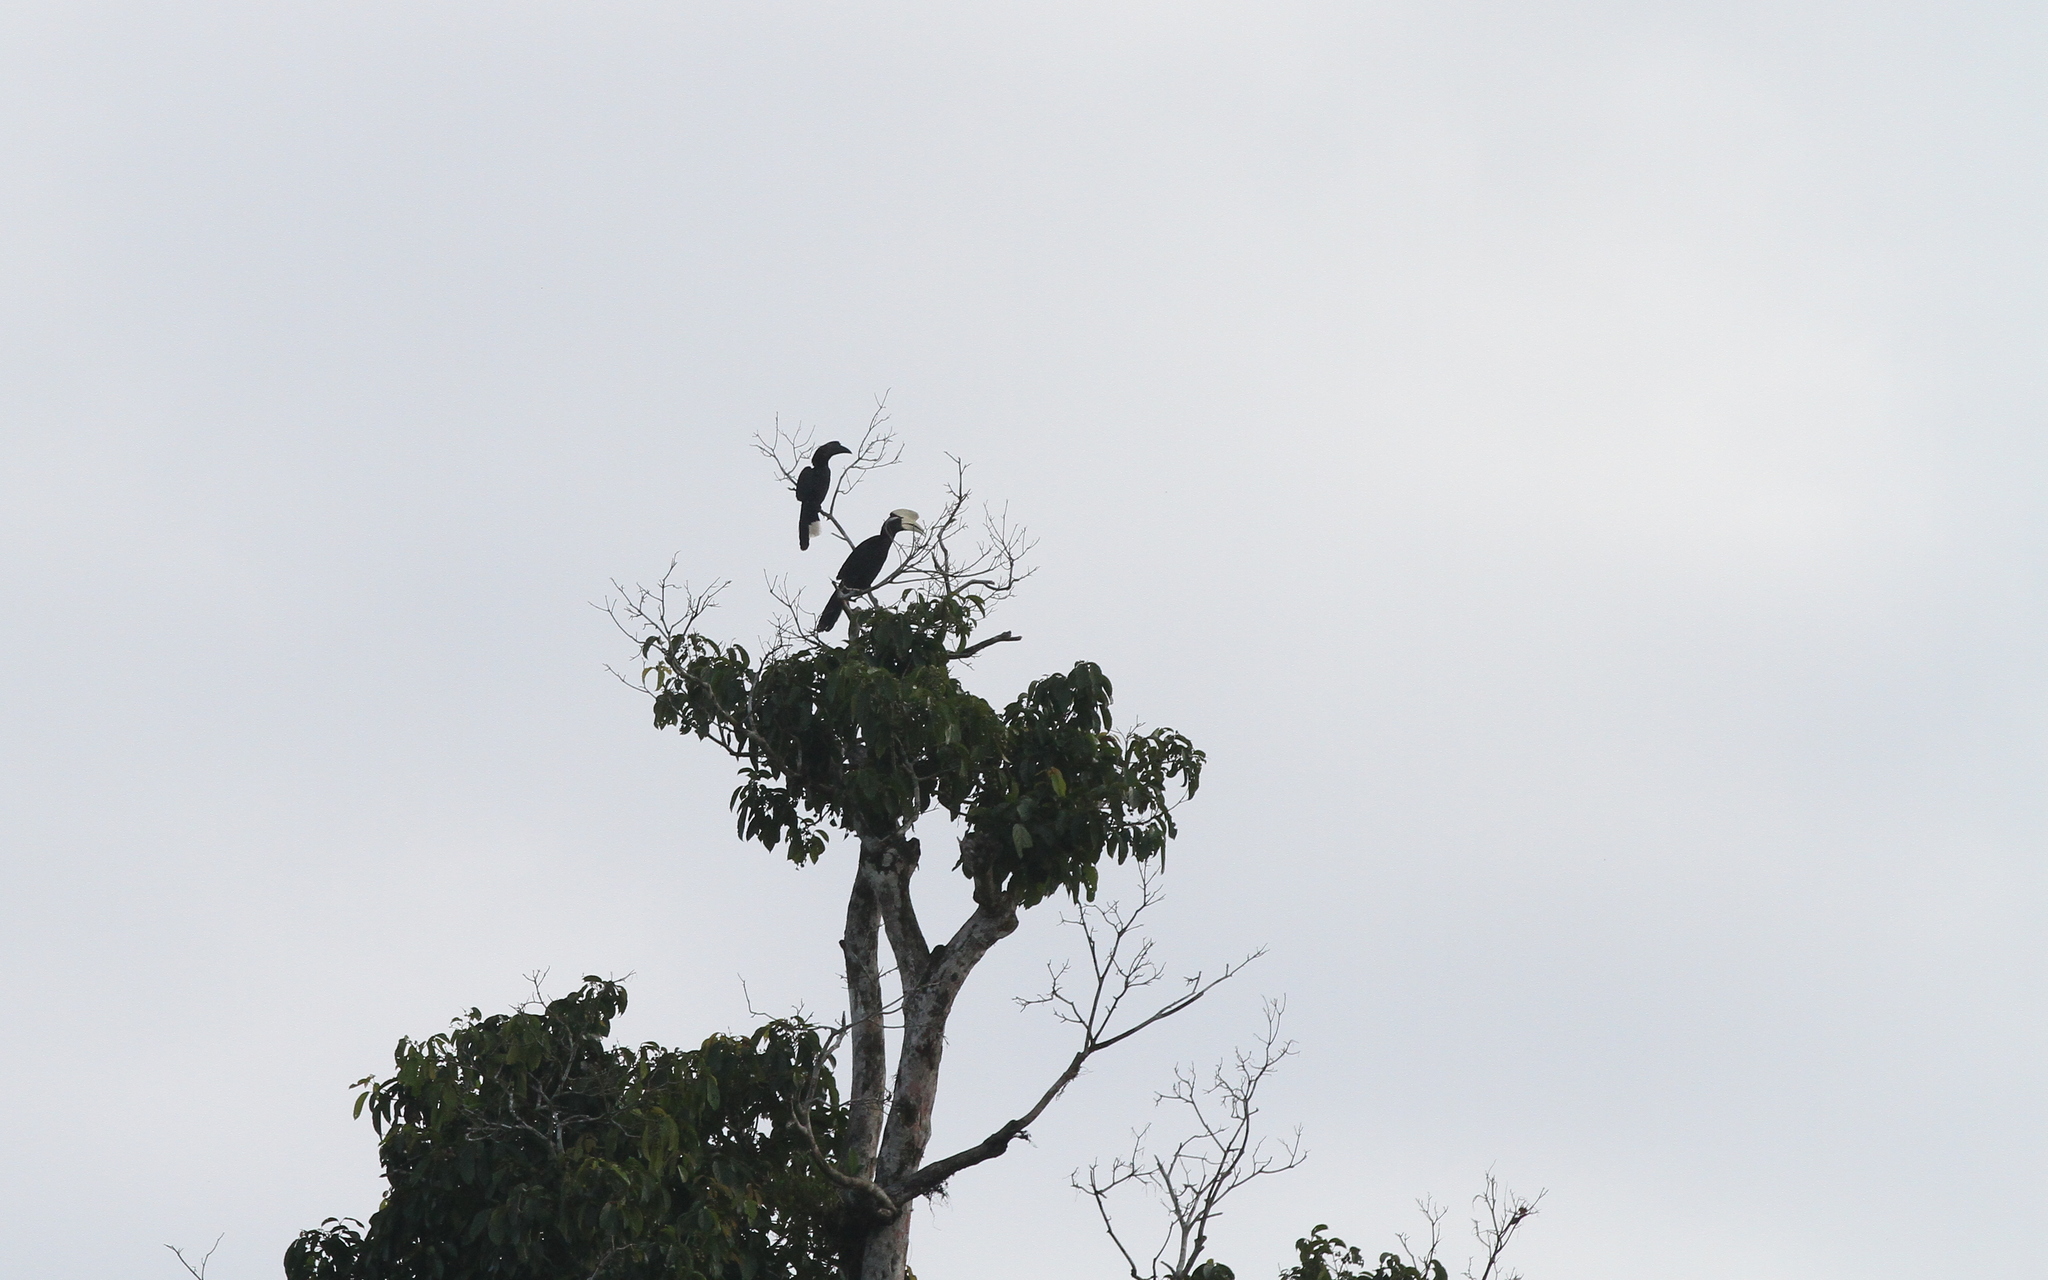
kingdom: Animalia
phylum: Chordata
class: Aves
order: Bucerotiformes
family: Bucerotidae
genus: Anthracoceros
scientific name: Anthracoceros malayanus
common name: Black hornbill
